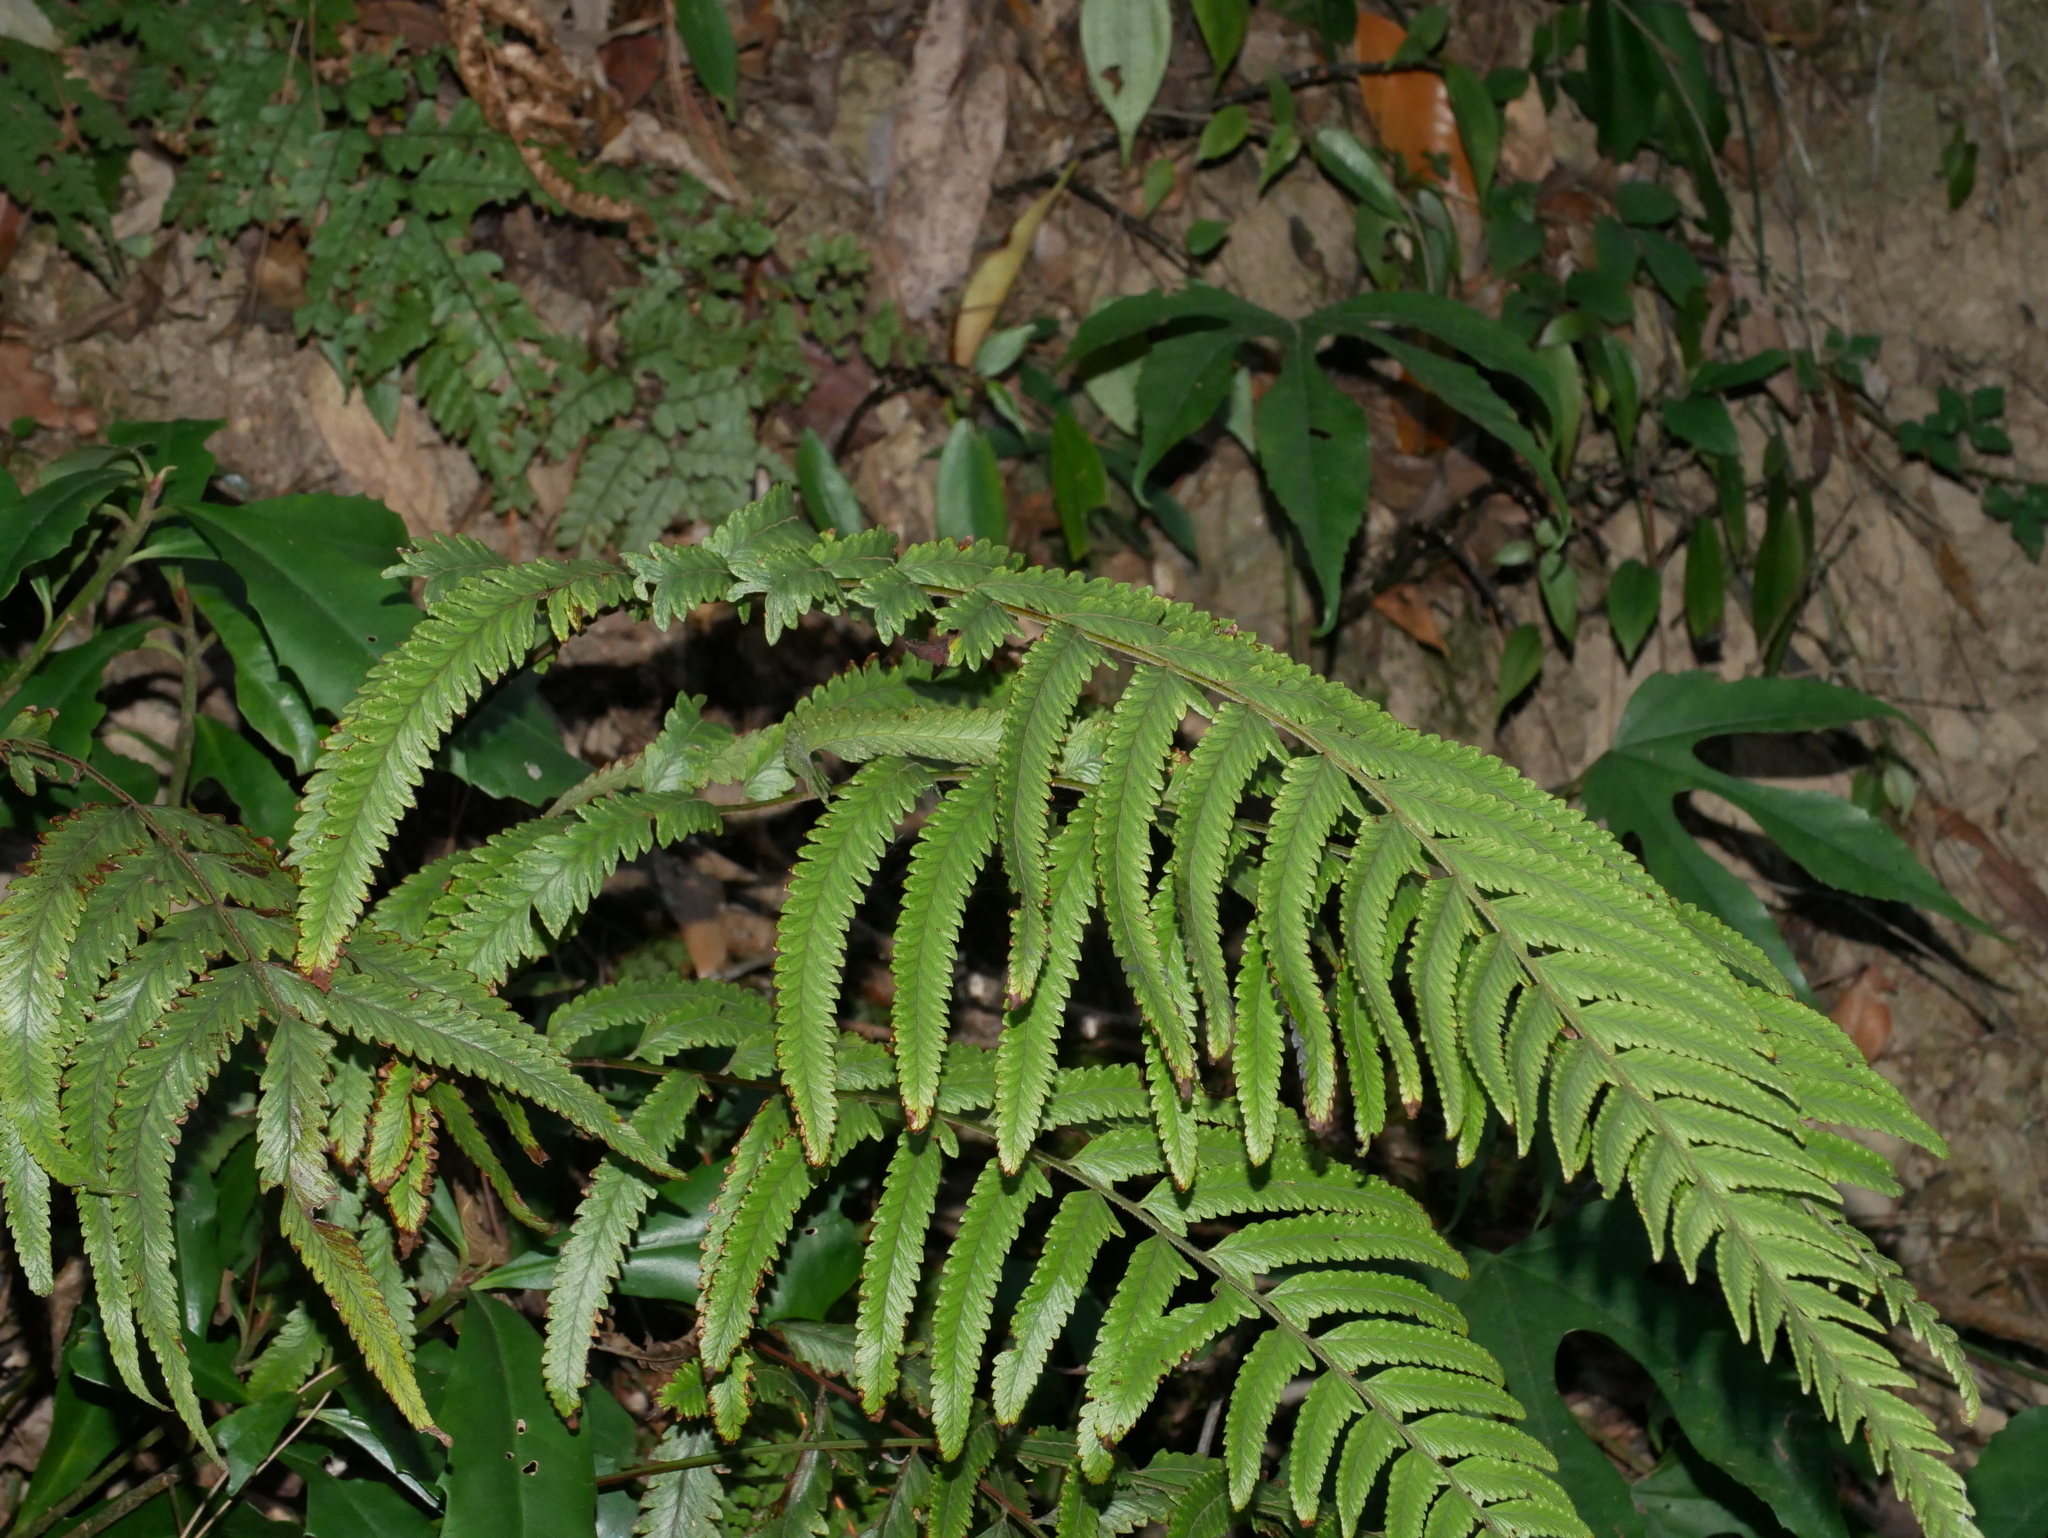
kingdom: Plantae
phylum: Tracheophyta
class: Polypodiopsida
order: Polypodiales
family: Dennstaedtiaceae
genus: Microlepia
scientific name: Microlepia marginata
